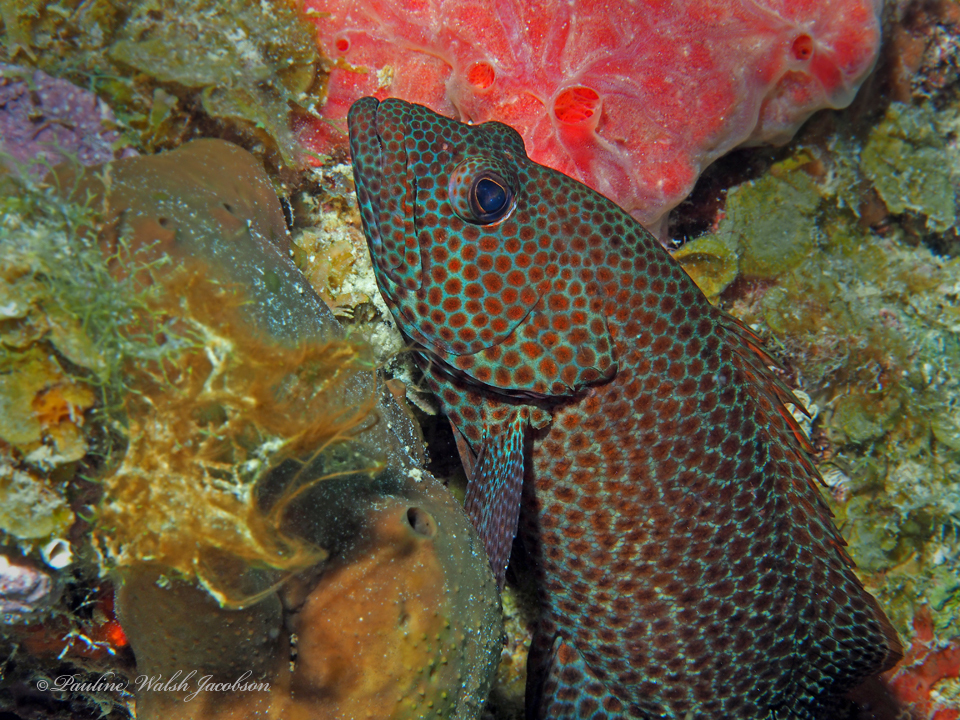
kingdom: Animalia
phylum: Chordata
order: Perciformes
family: Serranidae
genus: Cephalopholis
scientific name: Cephalopholis cruentata
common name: Graysby
